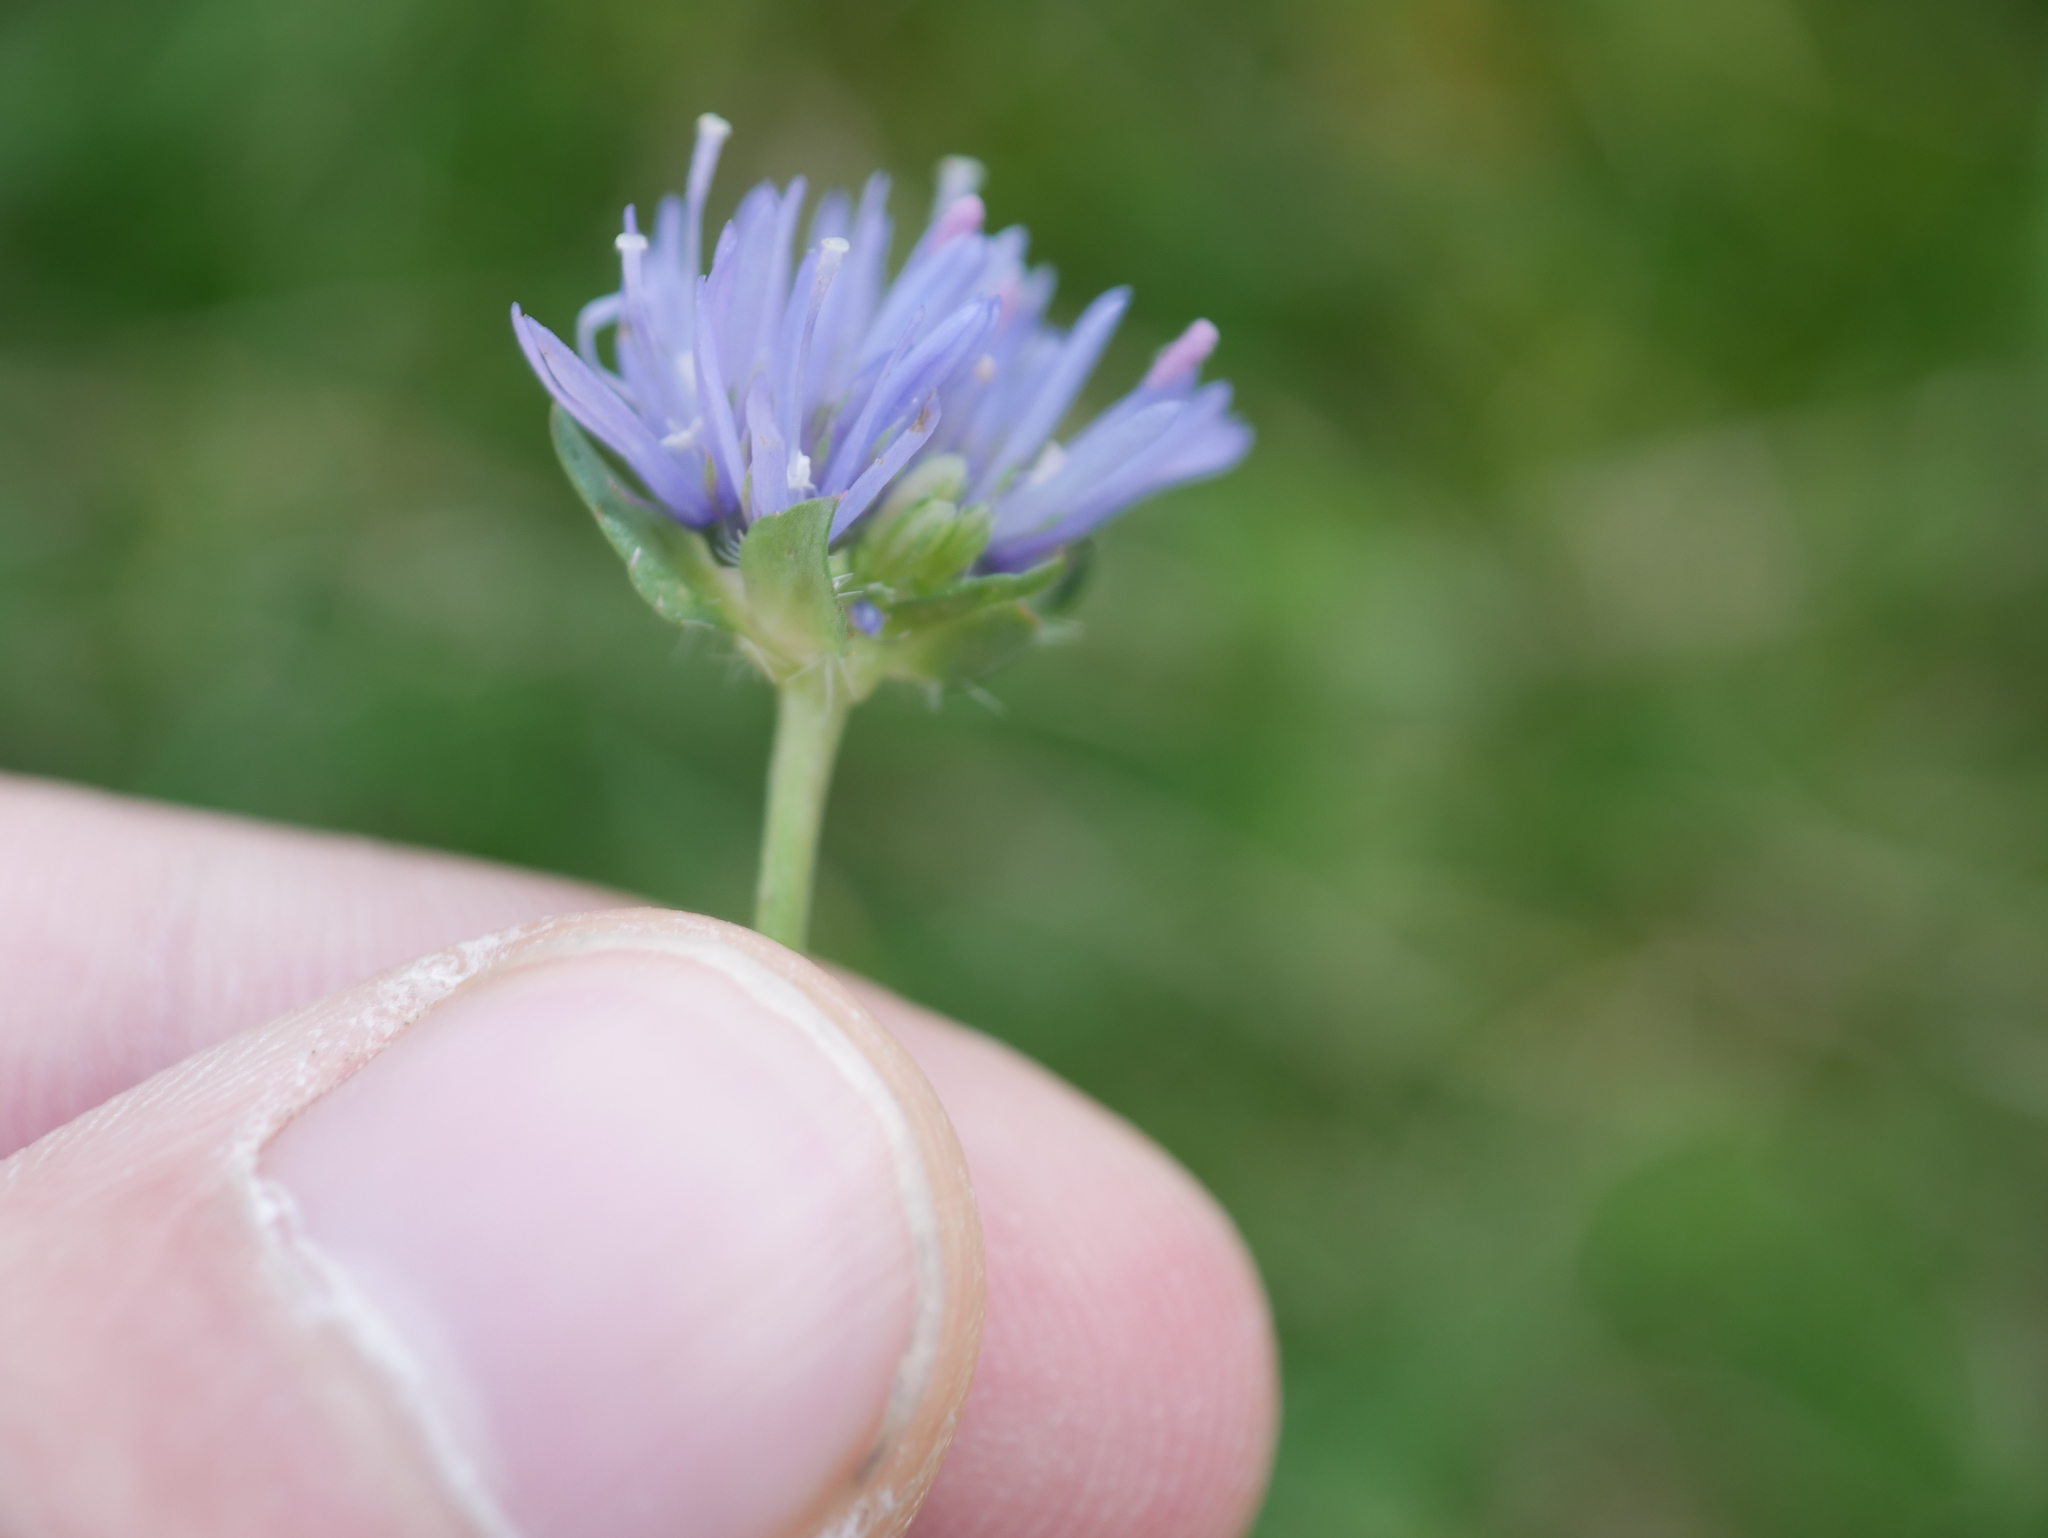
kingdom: Plantae
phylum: Tracheophyta
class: Magnoliopsida
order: Asterales
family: Campanulaceae
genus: Jasione
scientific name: Jasione montana
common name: Sheep's-bit
